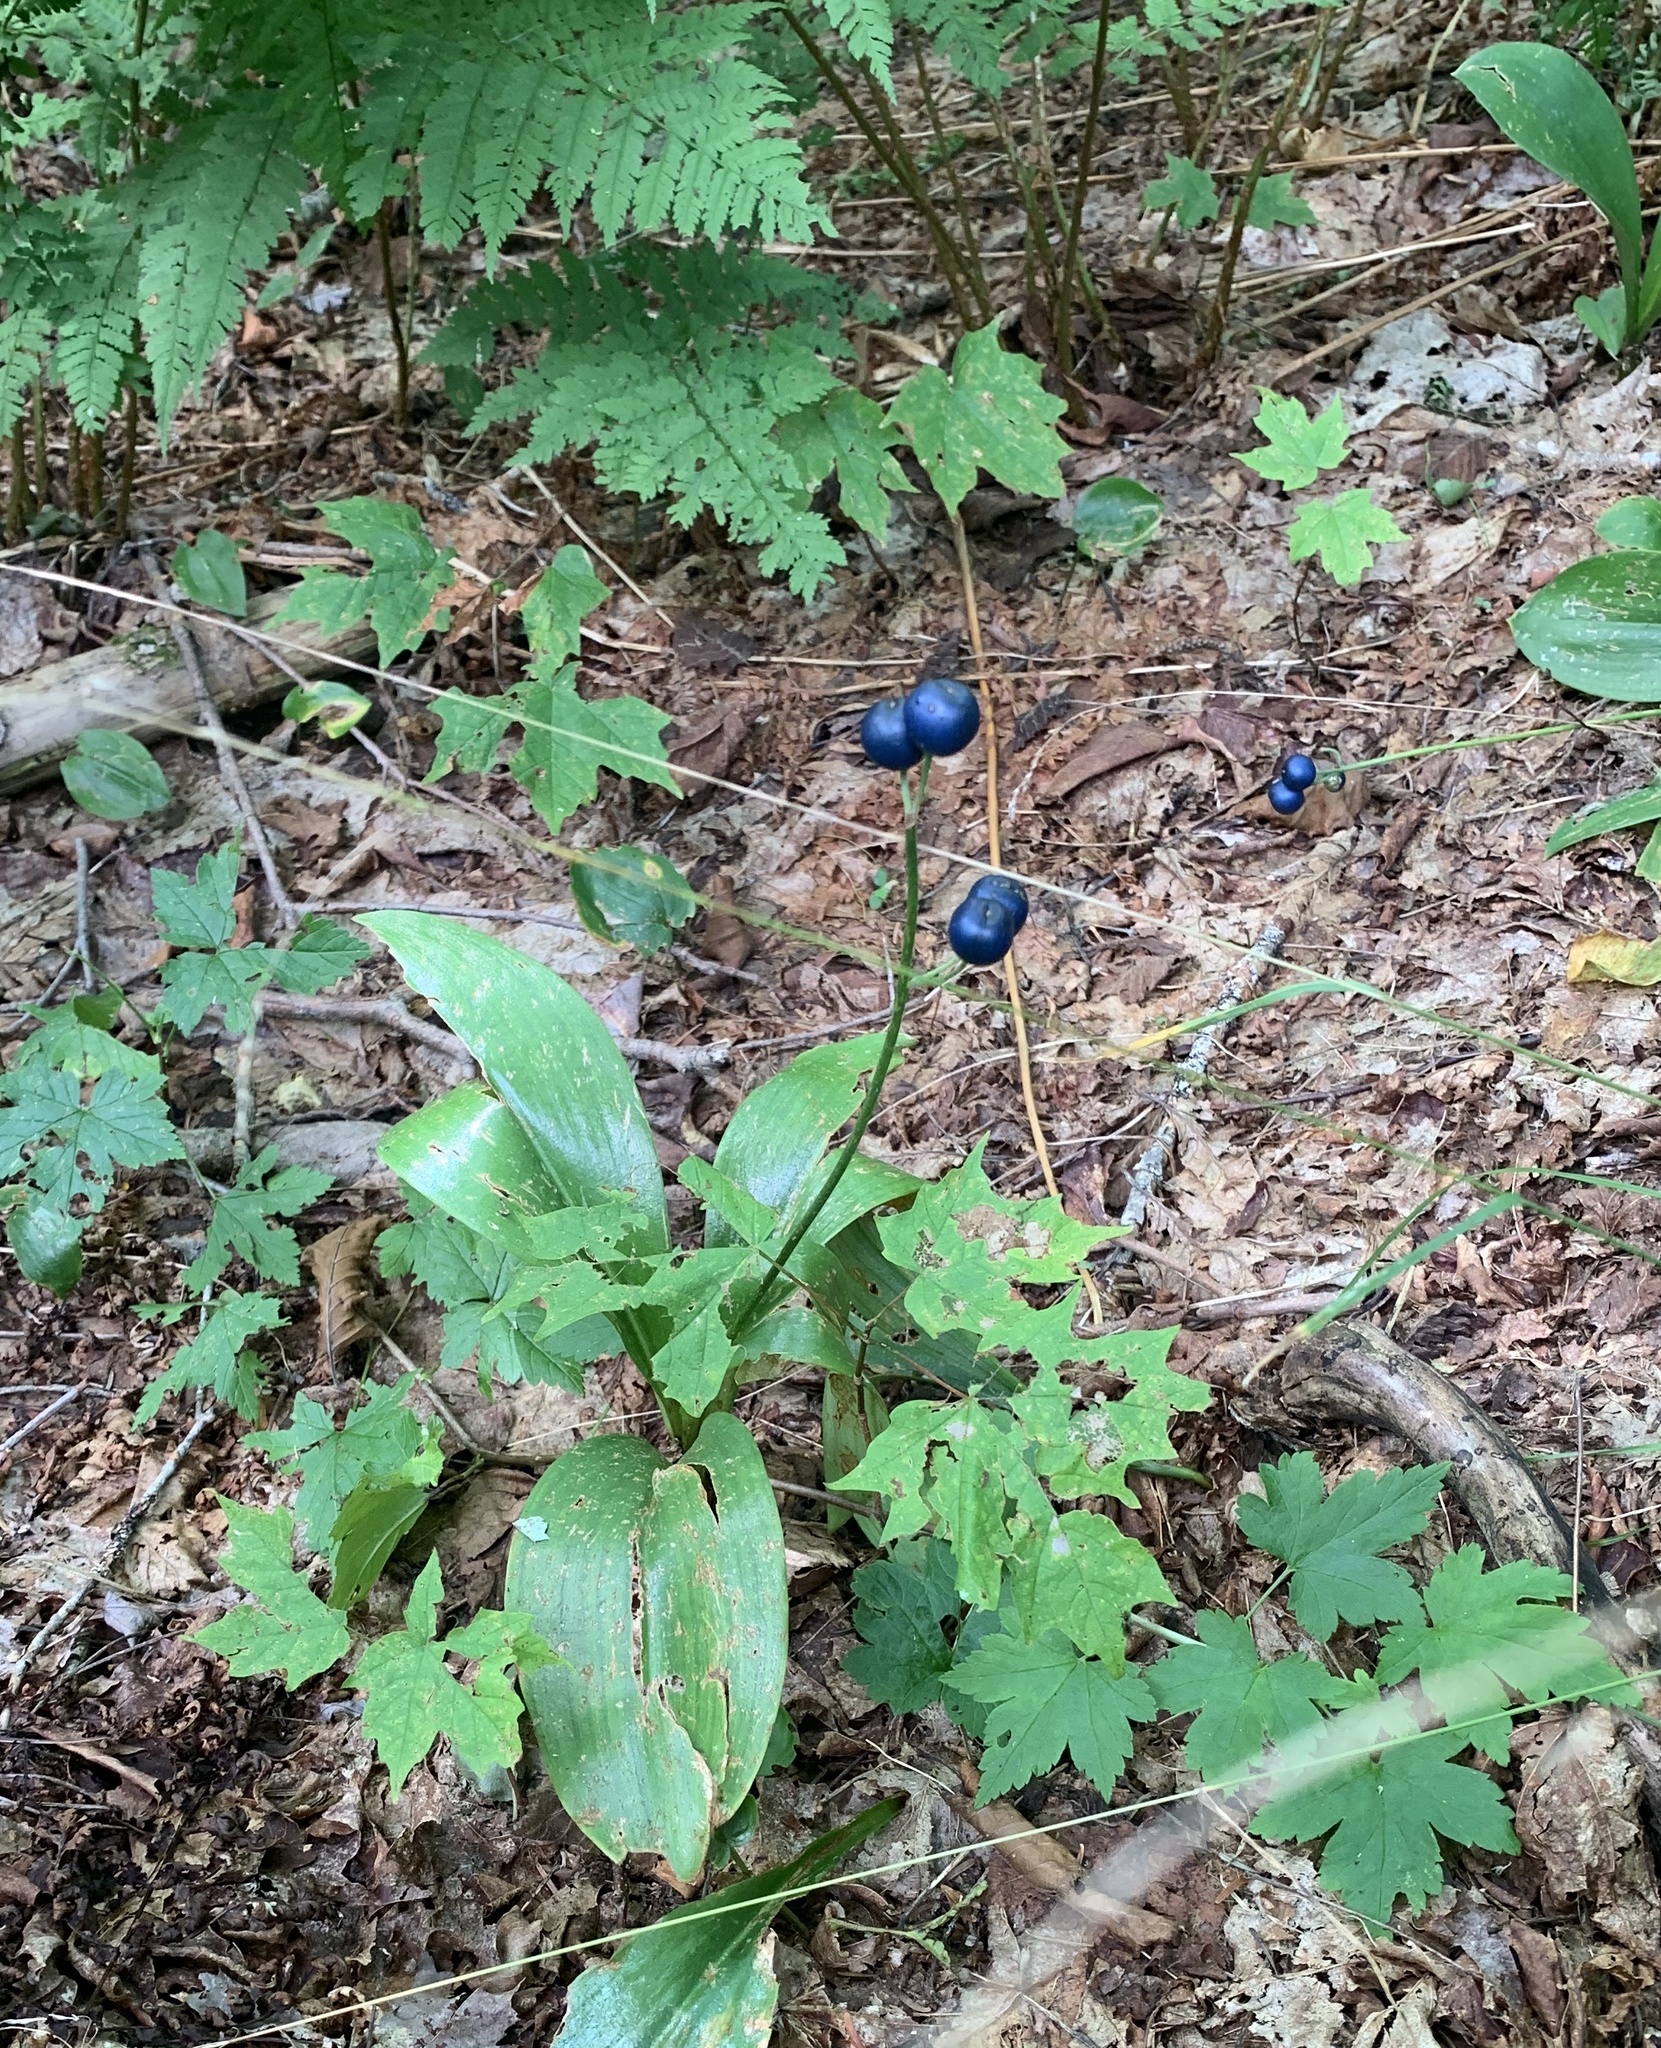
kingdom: Plantae
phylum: Tracheophyta
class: Liliopsida
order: Liliales
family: Liliaceae
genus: Clintonia
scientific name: Clintonia borealis
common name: Yellow clintonia
